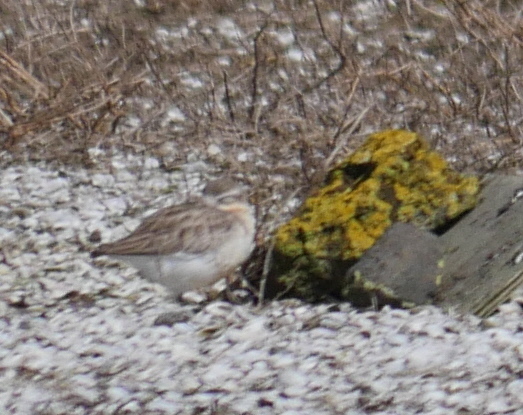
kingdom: Animalia
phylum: Chordata
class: Aves
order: Charadriiformes
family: Charadriidae
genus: Anarhynchus
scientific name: Anarhynchus
